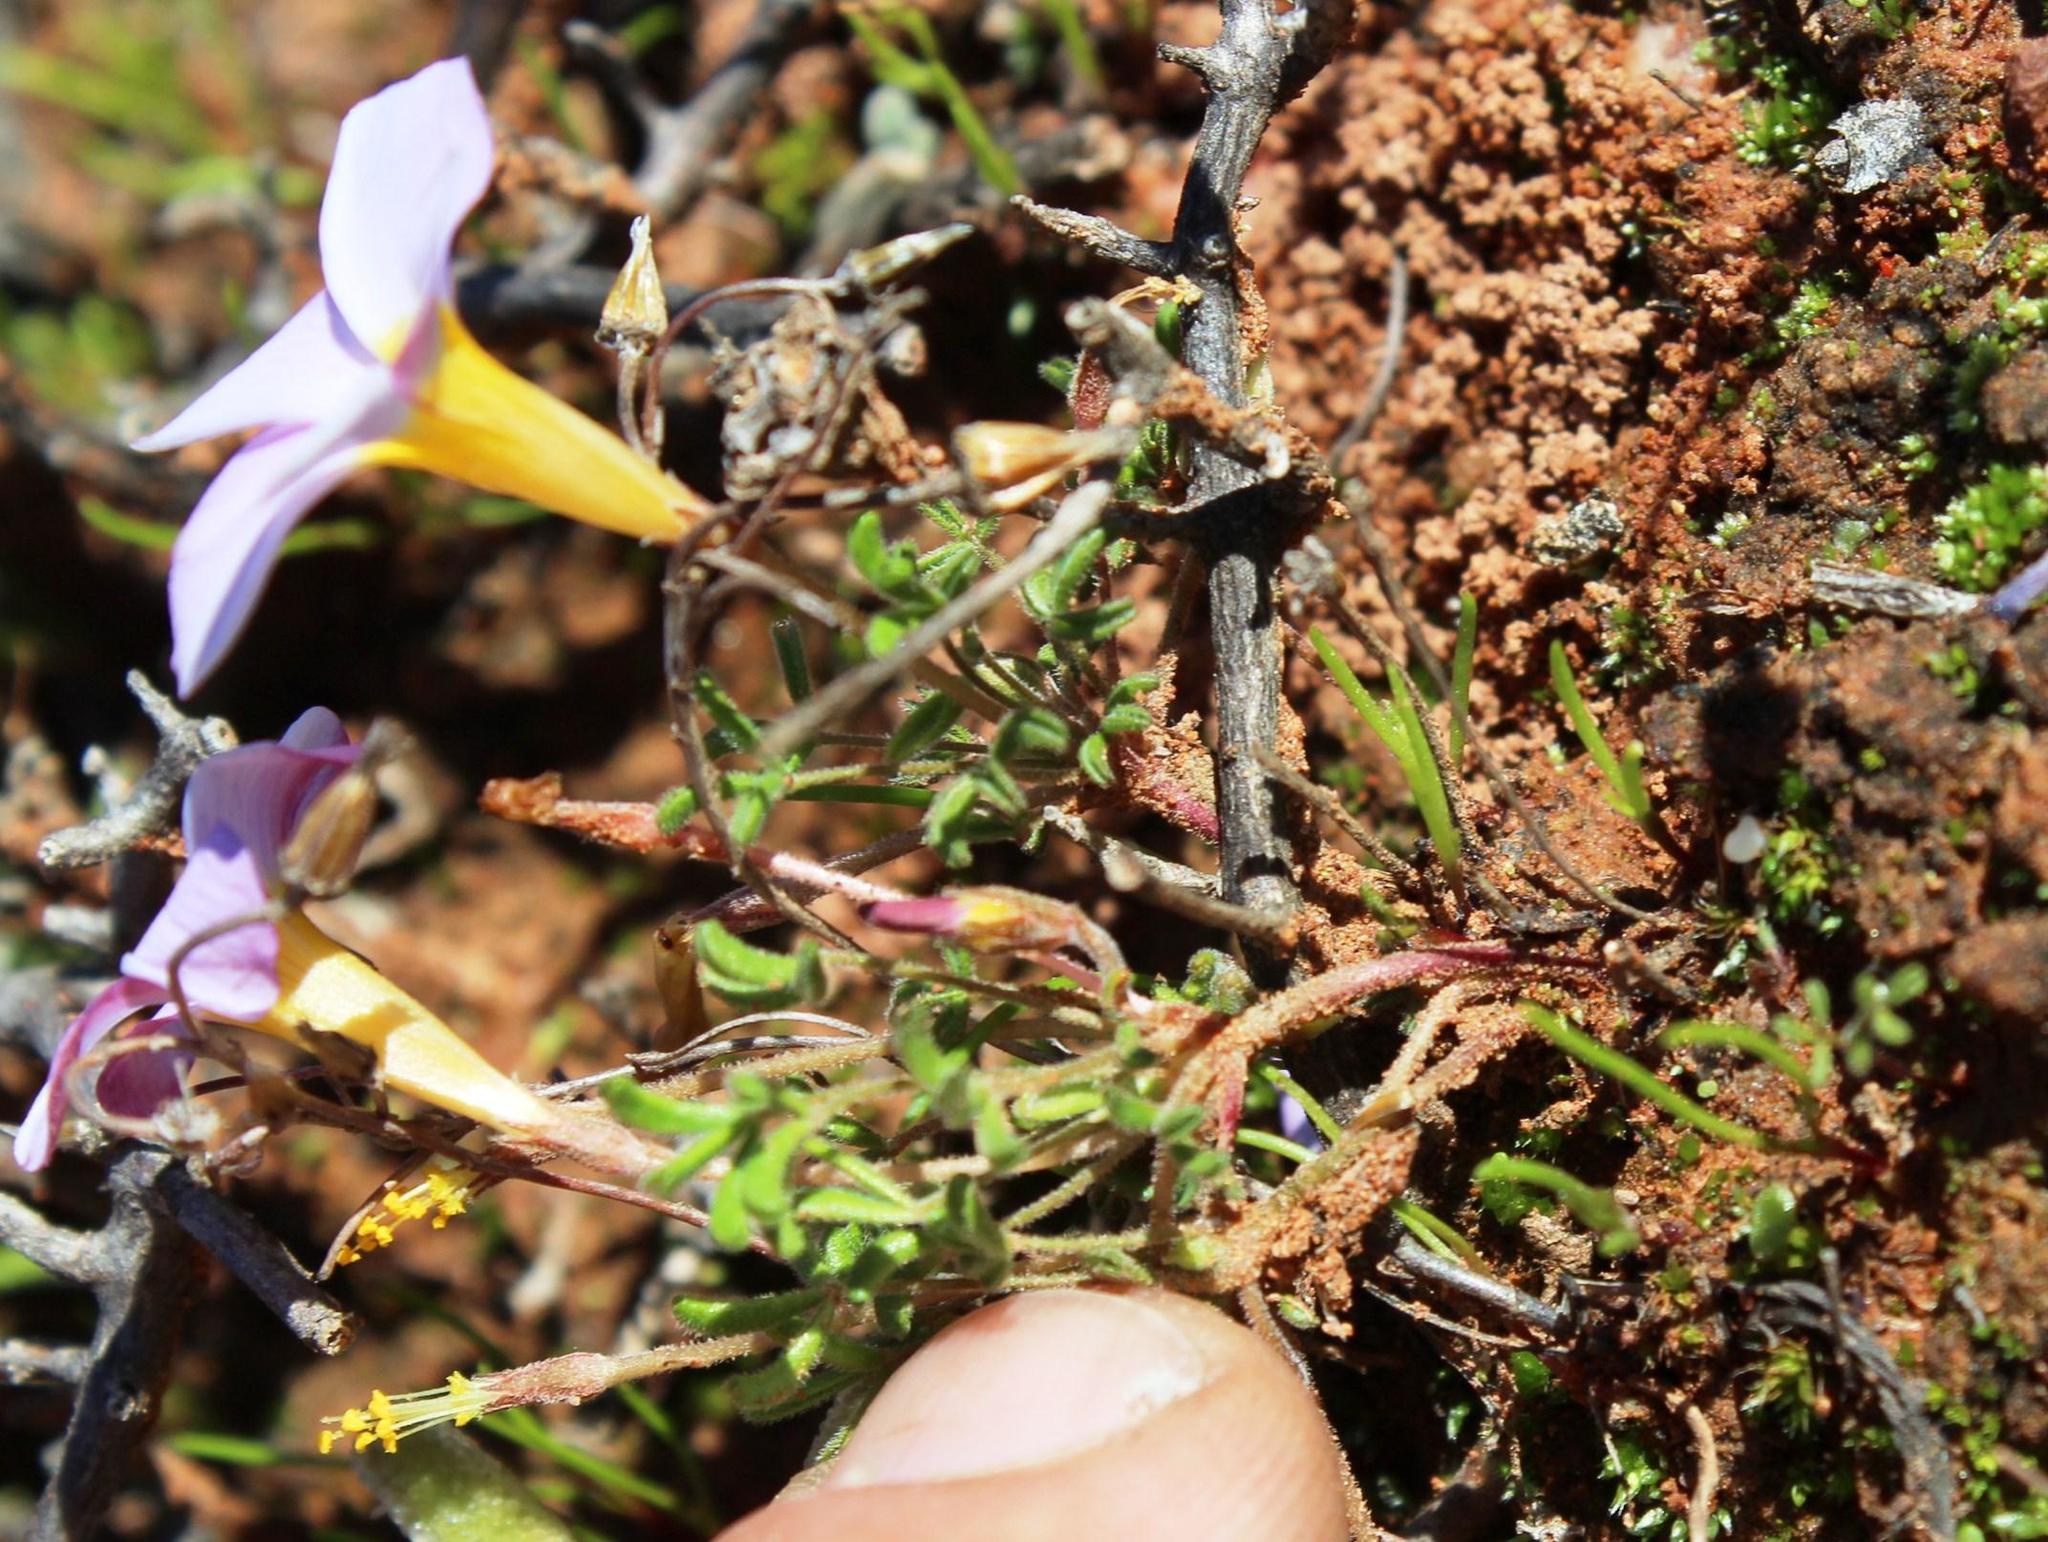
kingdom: Plantae
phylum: Tracheophyta
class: Magnoliopsida
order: Oxalidales
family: Oxalidaceae
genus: Oxalis
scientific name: Oxalis ciliaris
